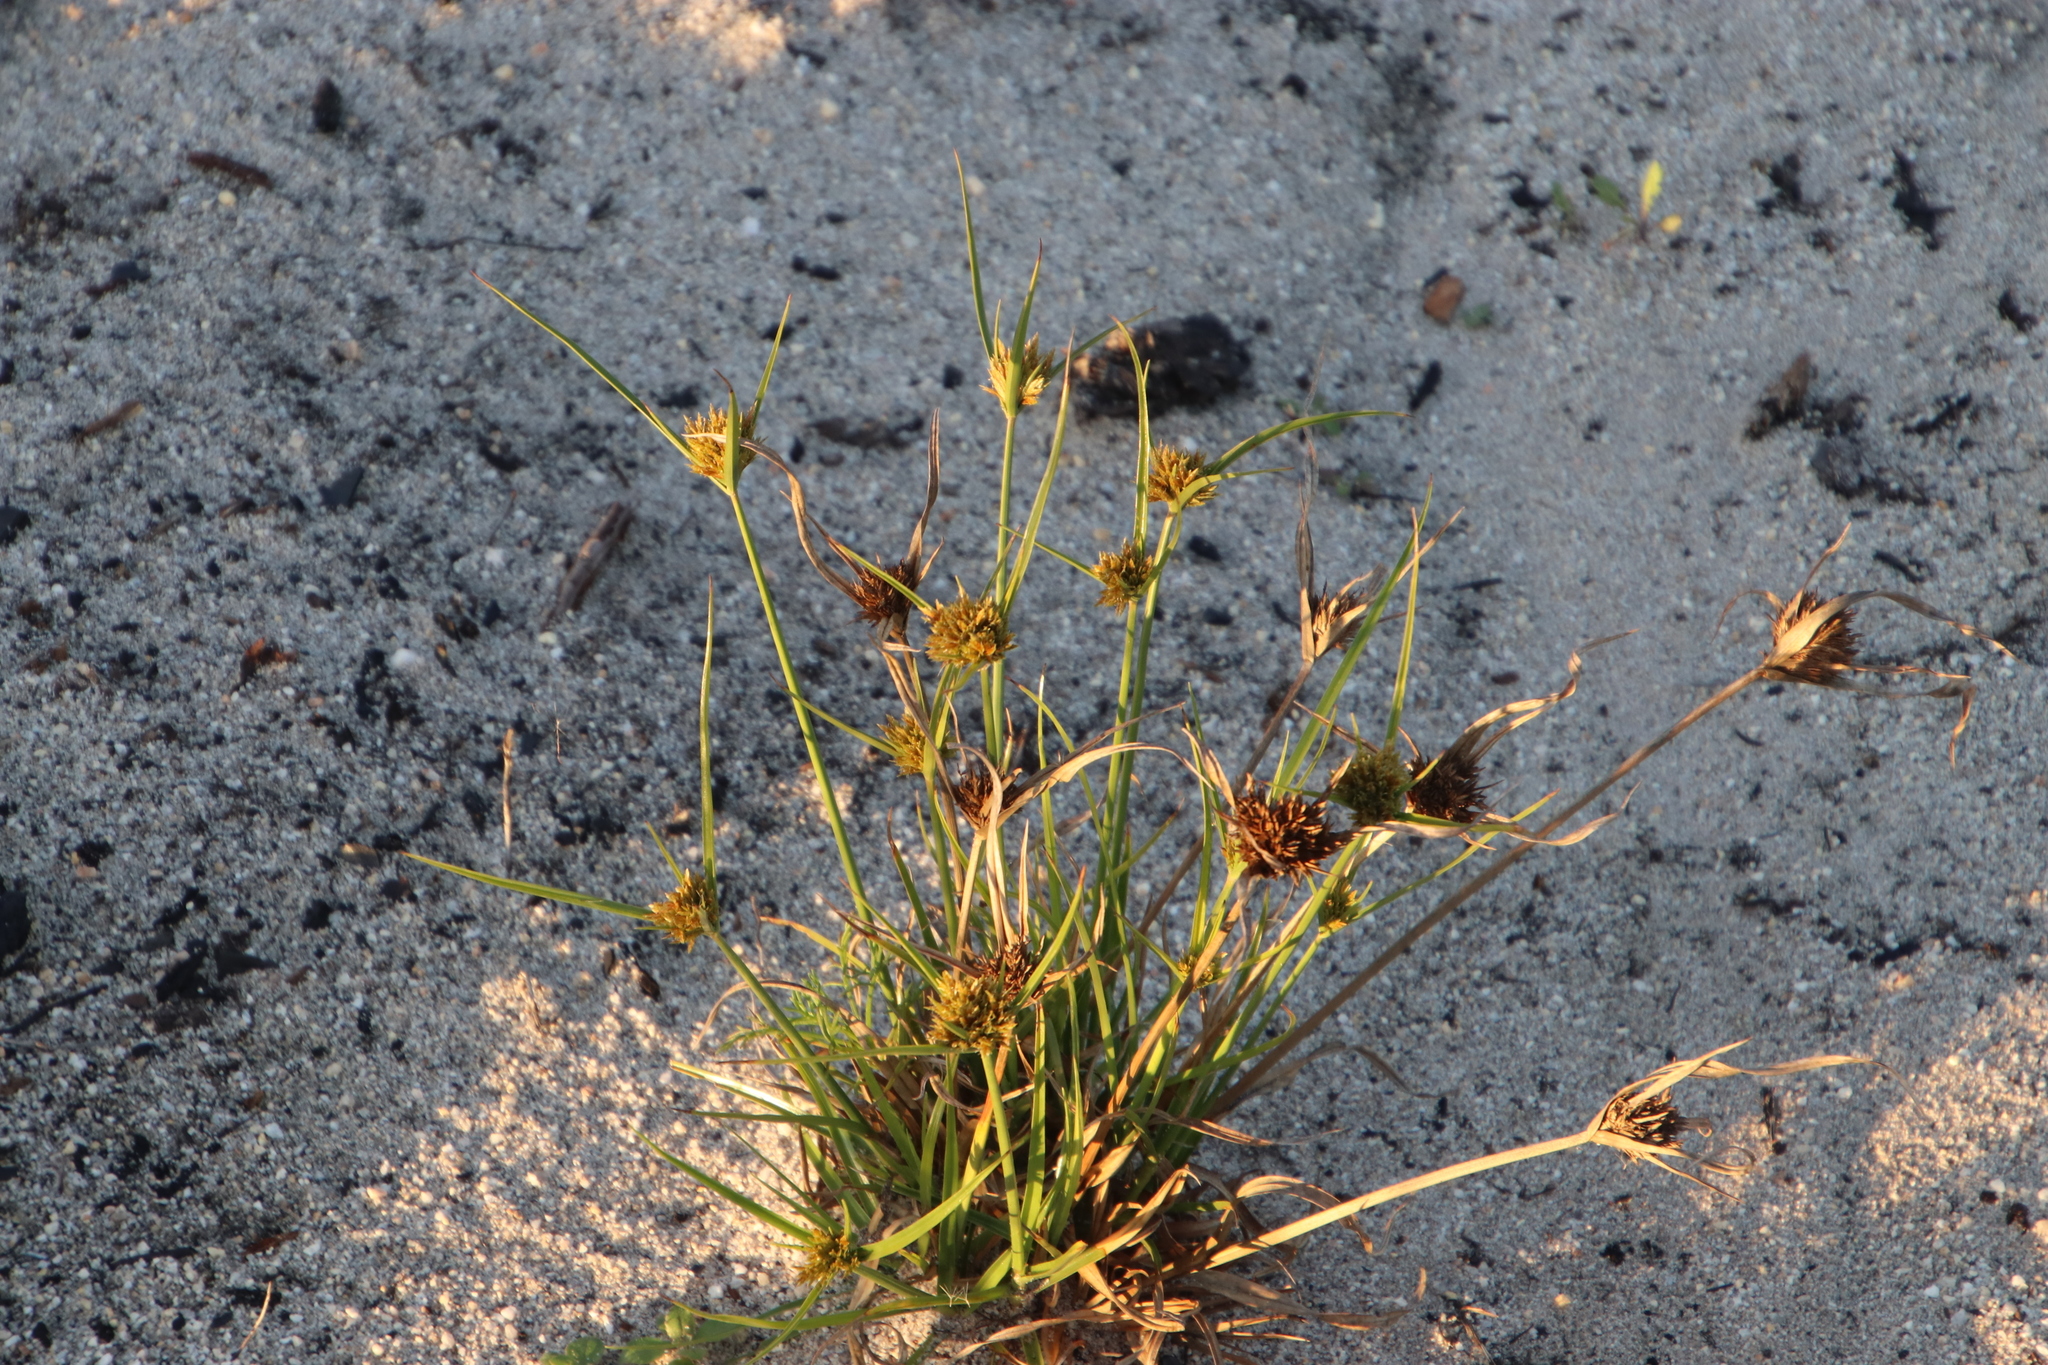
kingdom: Plantae
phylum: Tracheophyta
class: Liliopsida
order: Poales
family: Cyperaceae
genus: Cyperus
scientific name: Cyperus polystachyos
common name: Bunchy flat sedge
